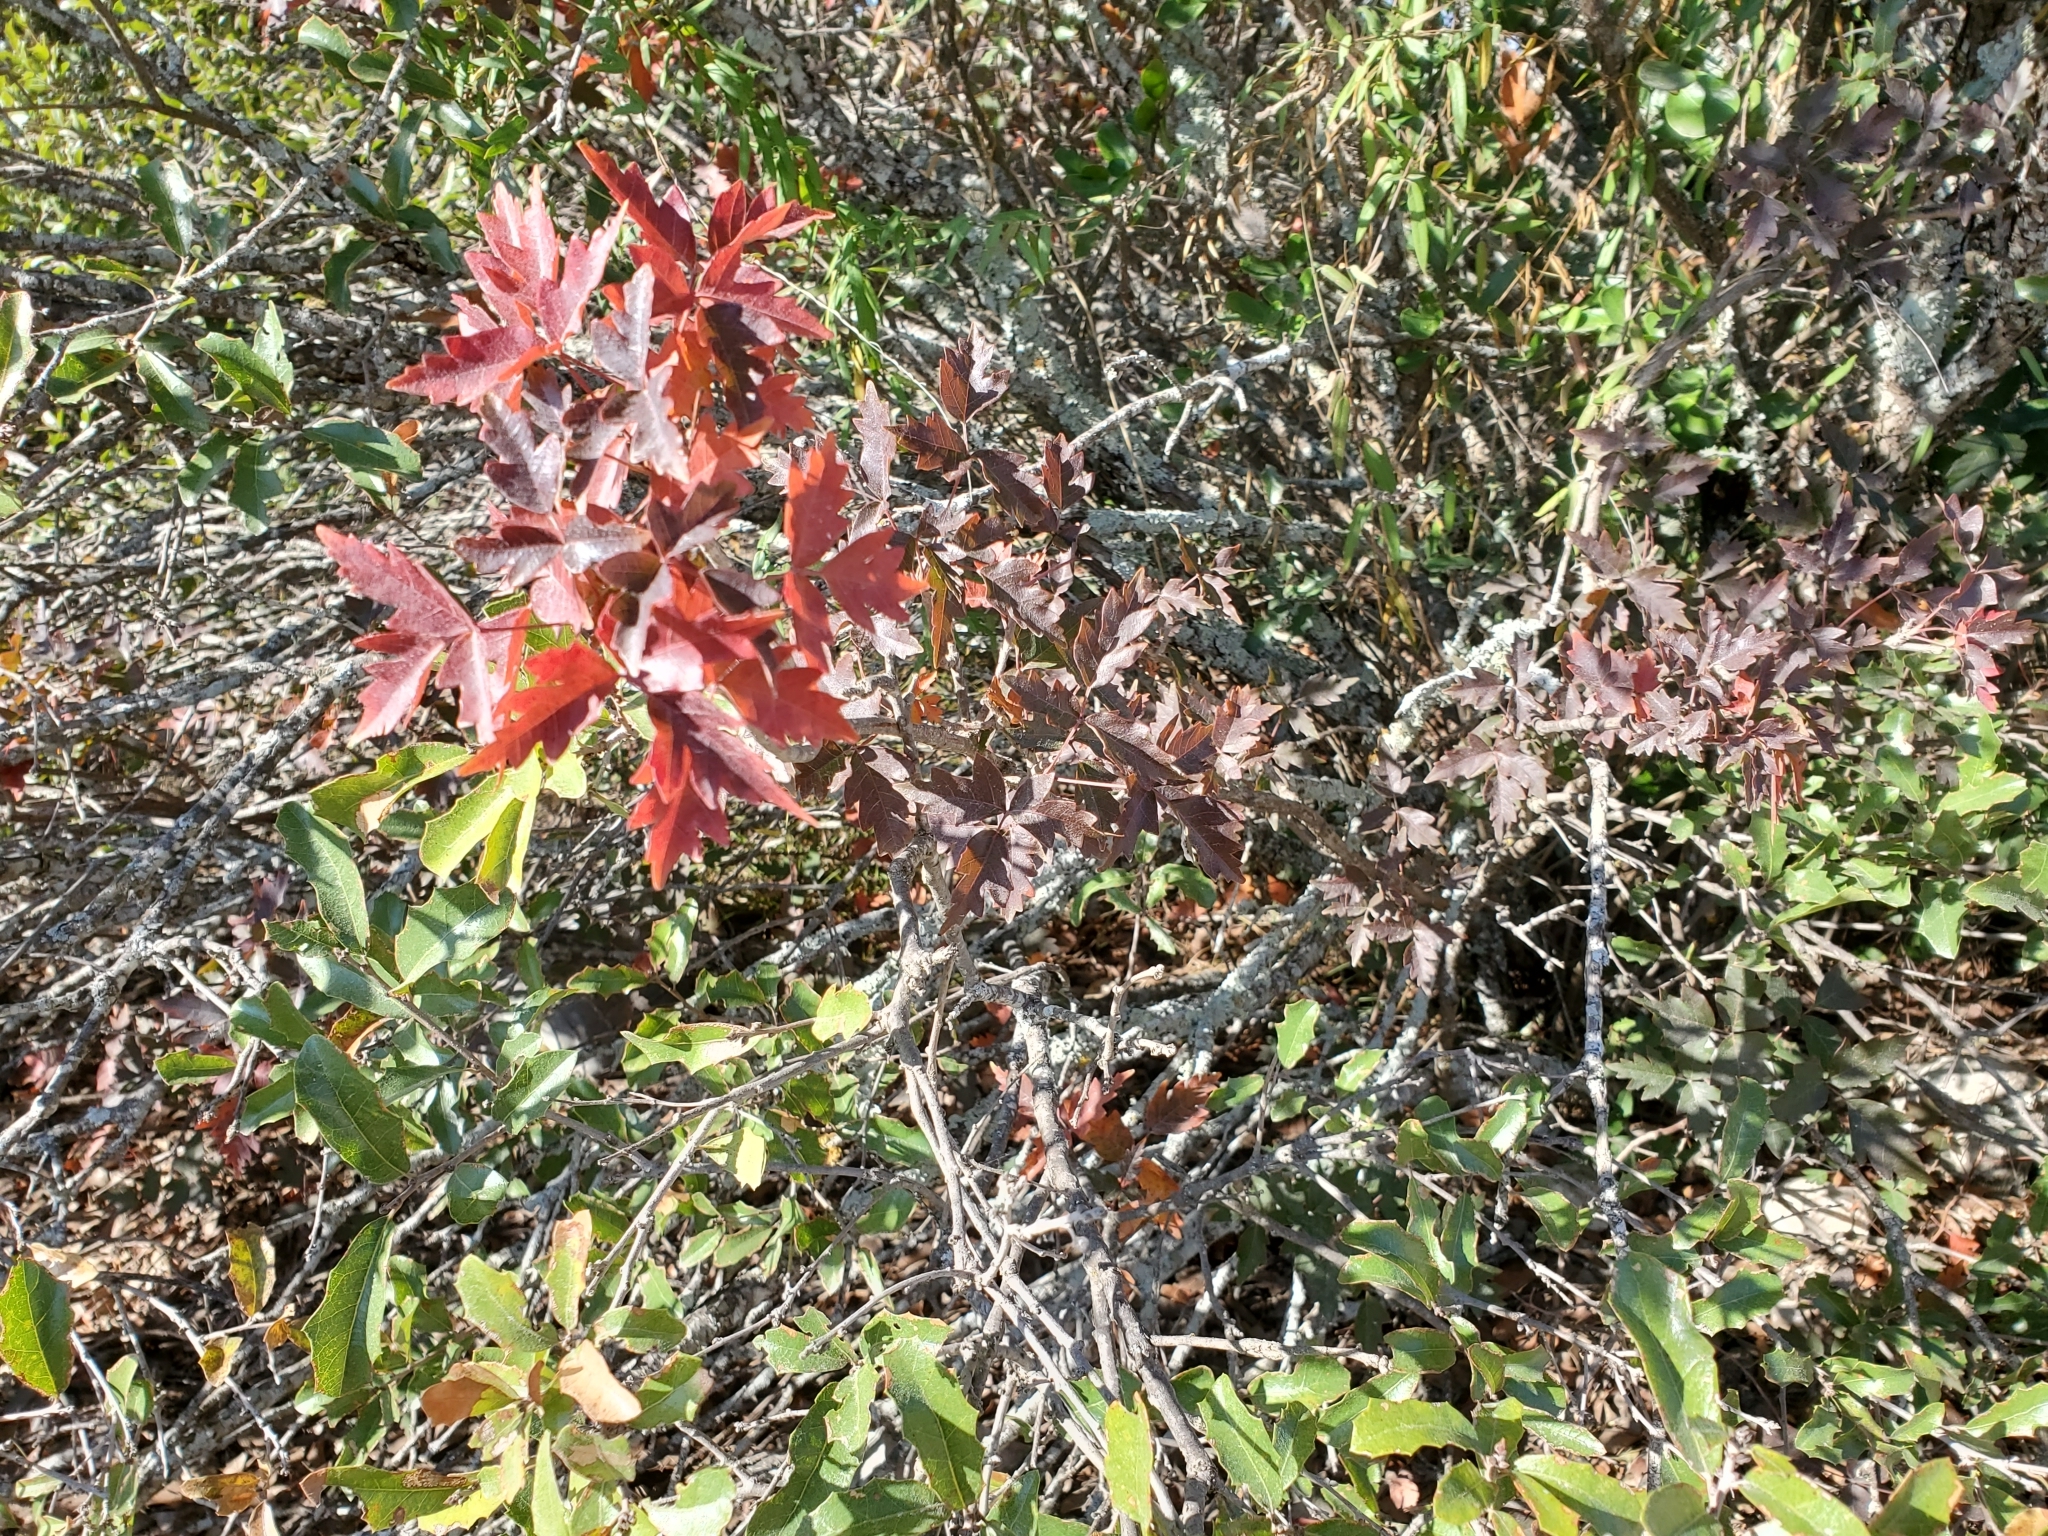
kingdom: Plantae
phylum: Tracheophyta
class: Magnoliopsida
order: Sapindales
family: Anacardiaceae
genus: Toxicodendron
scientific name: Toxicodendron radicans
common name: Poison ivy
